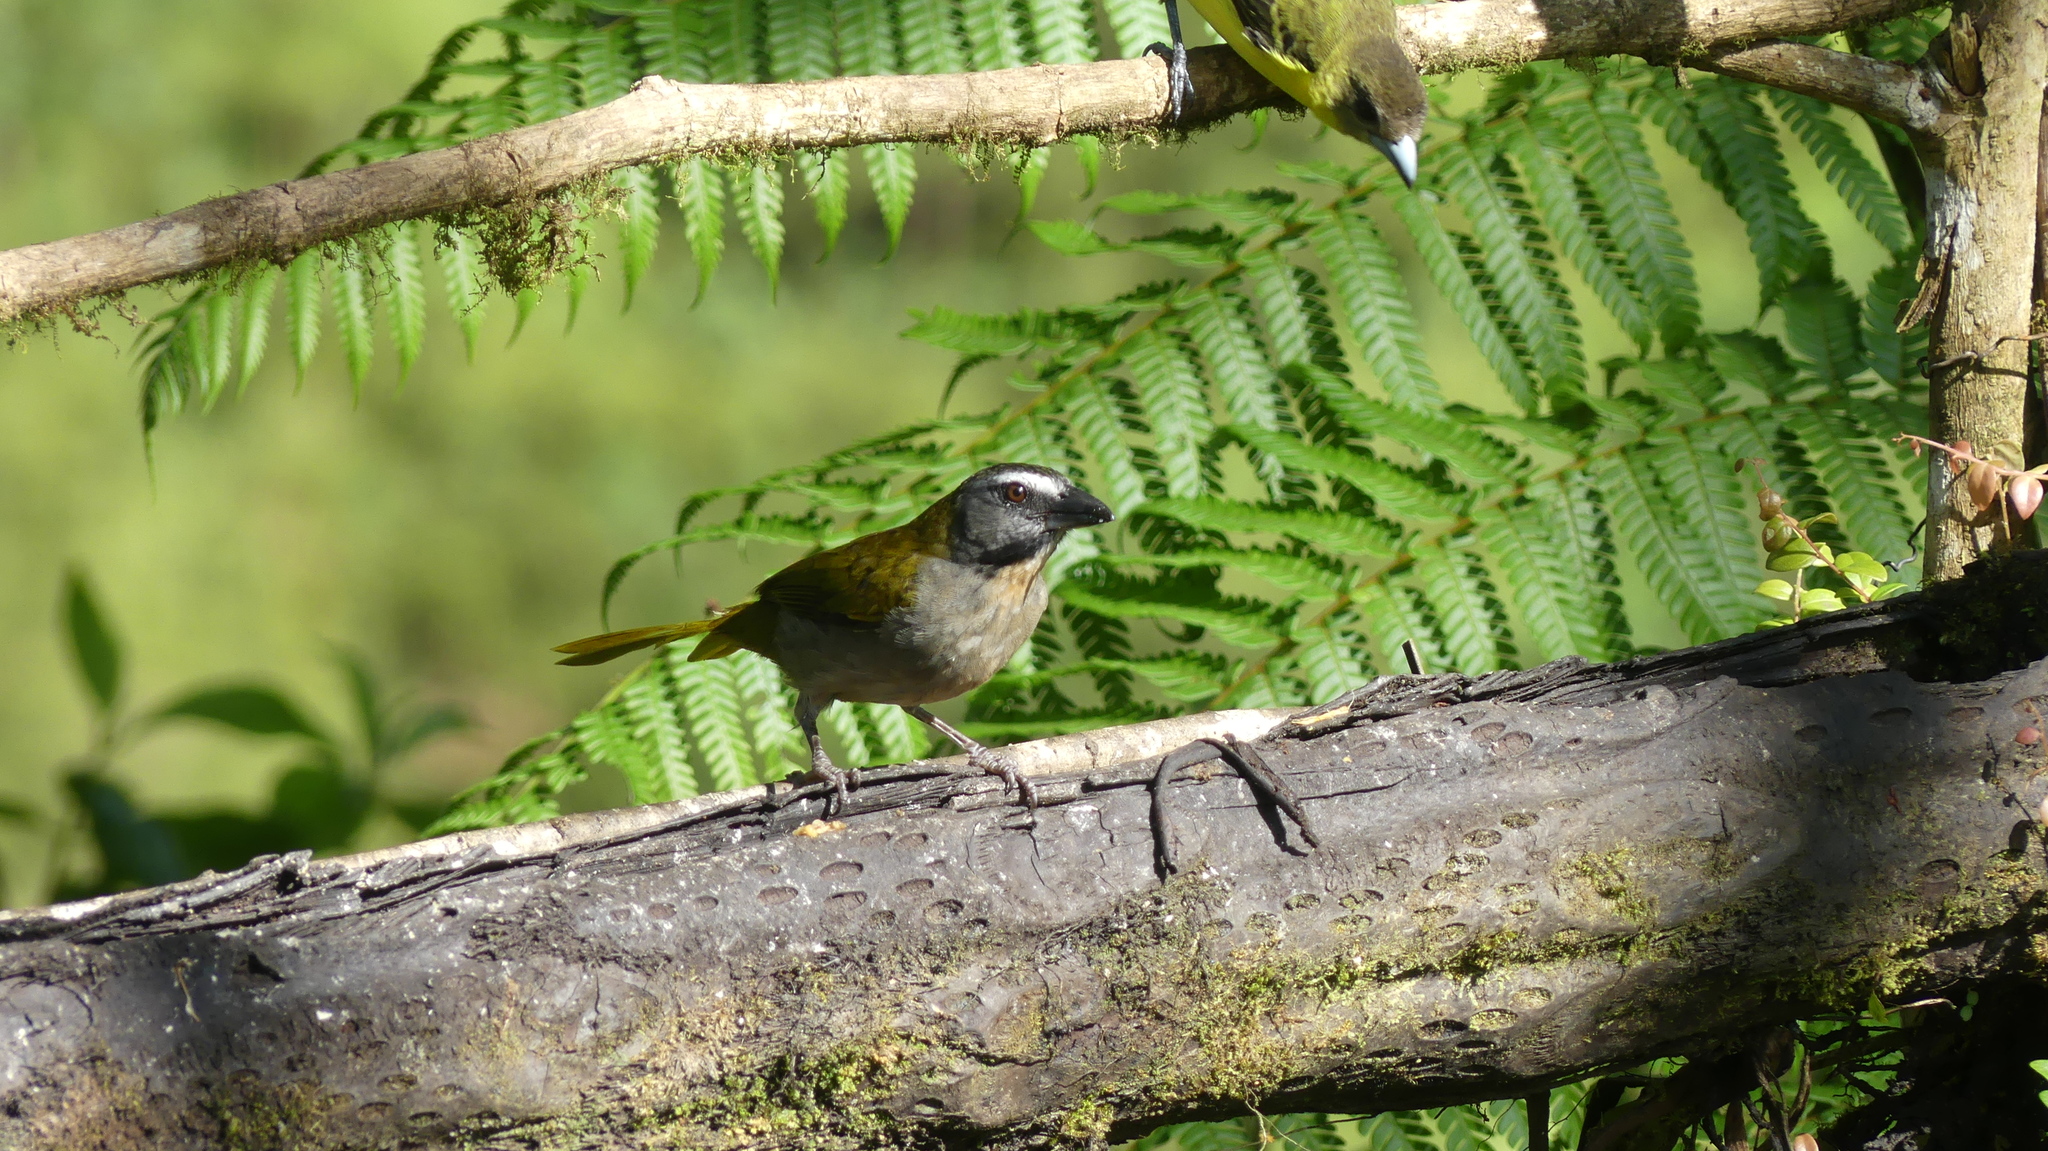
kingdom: Animalia
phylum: Chordata
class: Aves
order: Passeriformes
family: Thraupidae
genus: Saltator
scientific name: Saltator maximus
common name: Buff-throated saltator
